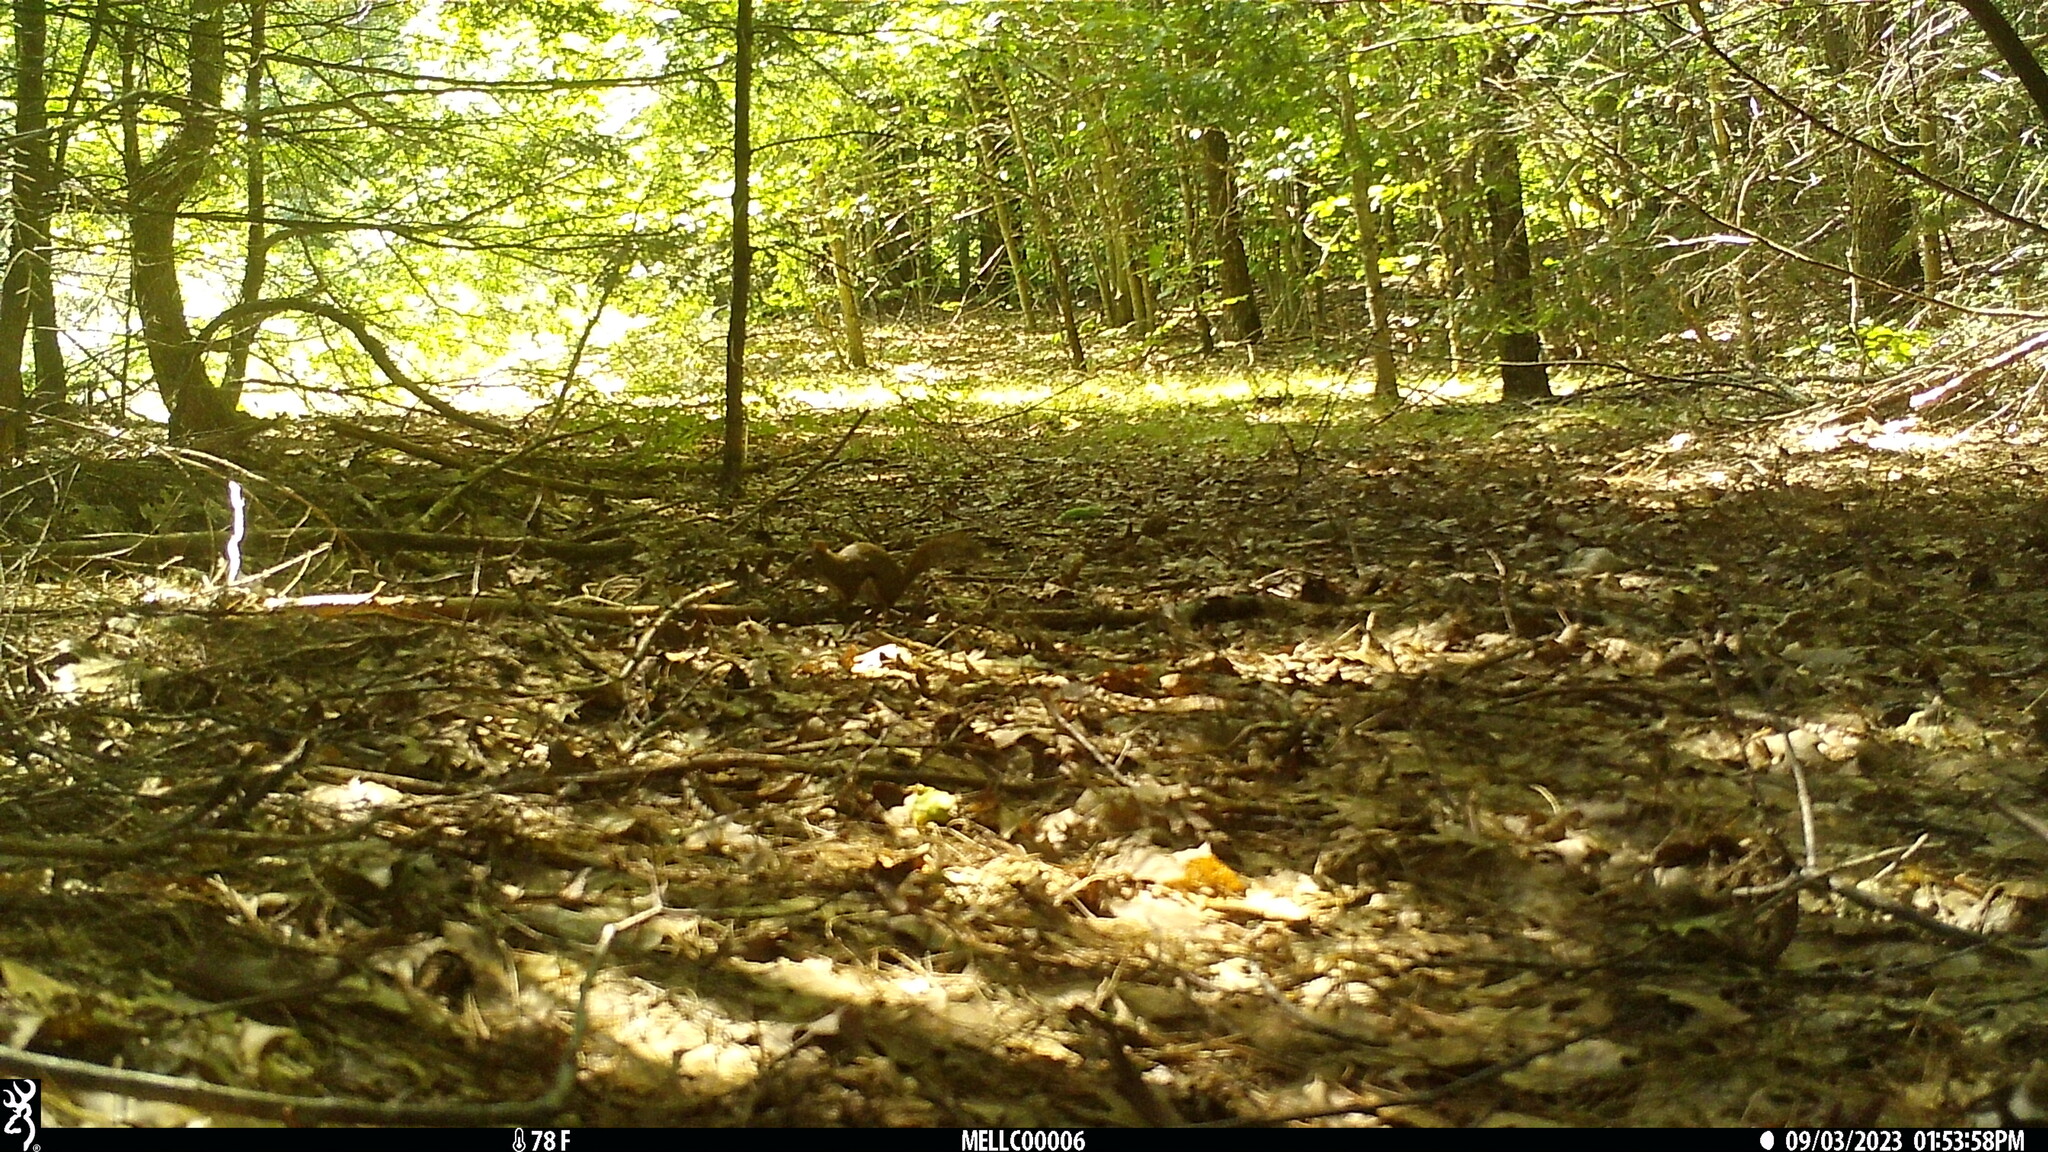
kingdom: Animalia
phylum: Chordata
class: Mammalia
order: Rodentia
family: Sciuridae
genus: Tamiasciurus
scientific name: Tamiasciurus hudsonicus
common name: Red squirrel
